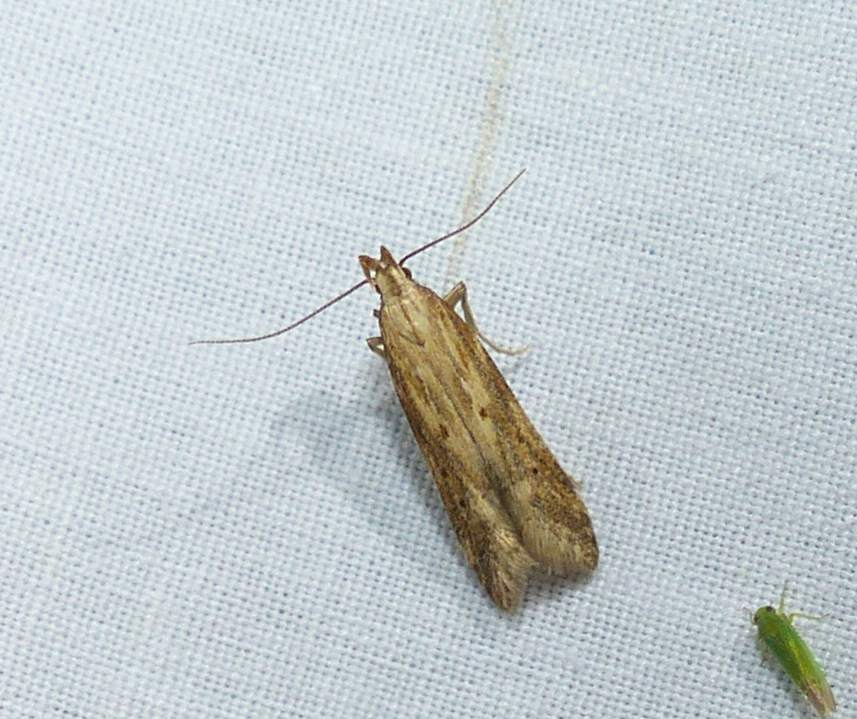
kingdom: Animalia
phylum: Arthropoda
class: Insecta
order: Lepidoptera
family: Gelechiidae
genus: Metzneria
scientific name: Metzneria lappella
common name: Burdock neb
